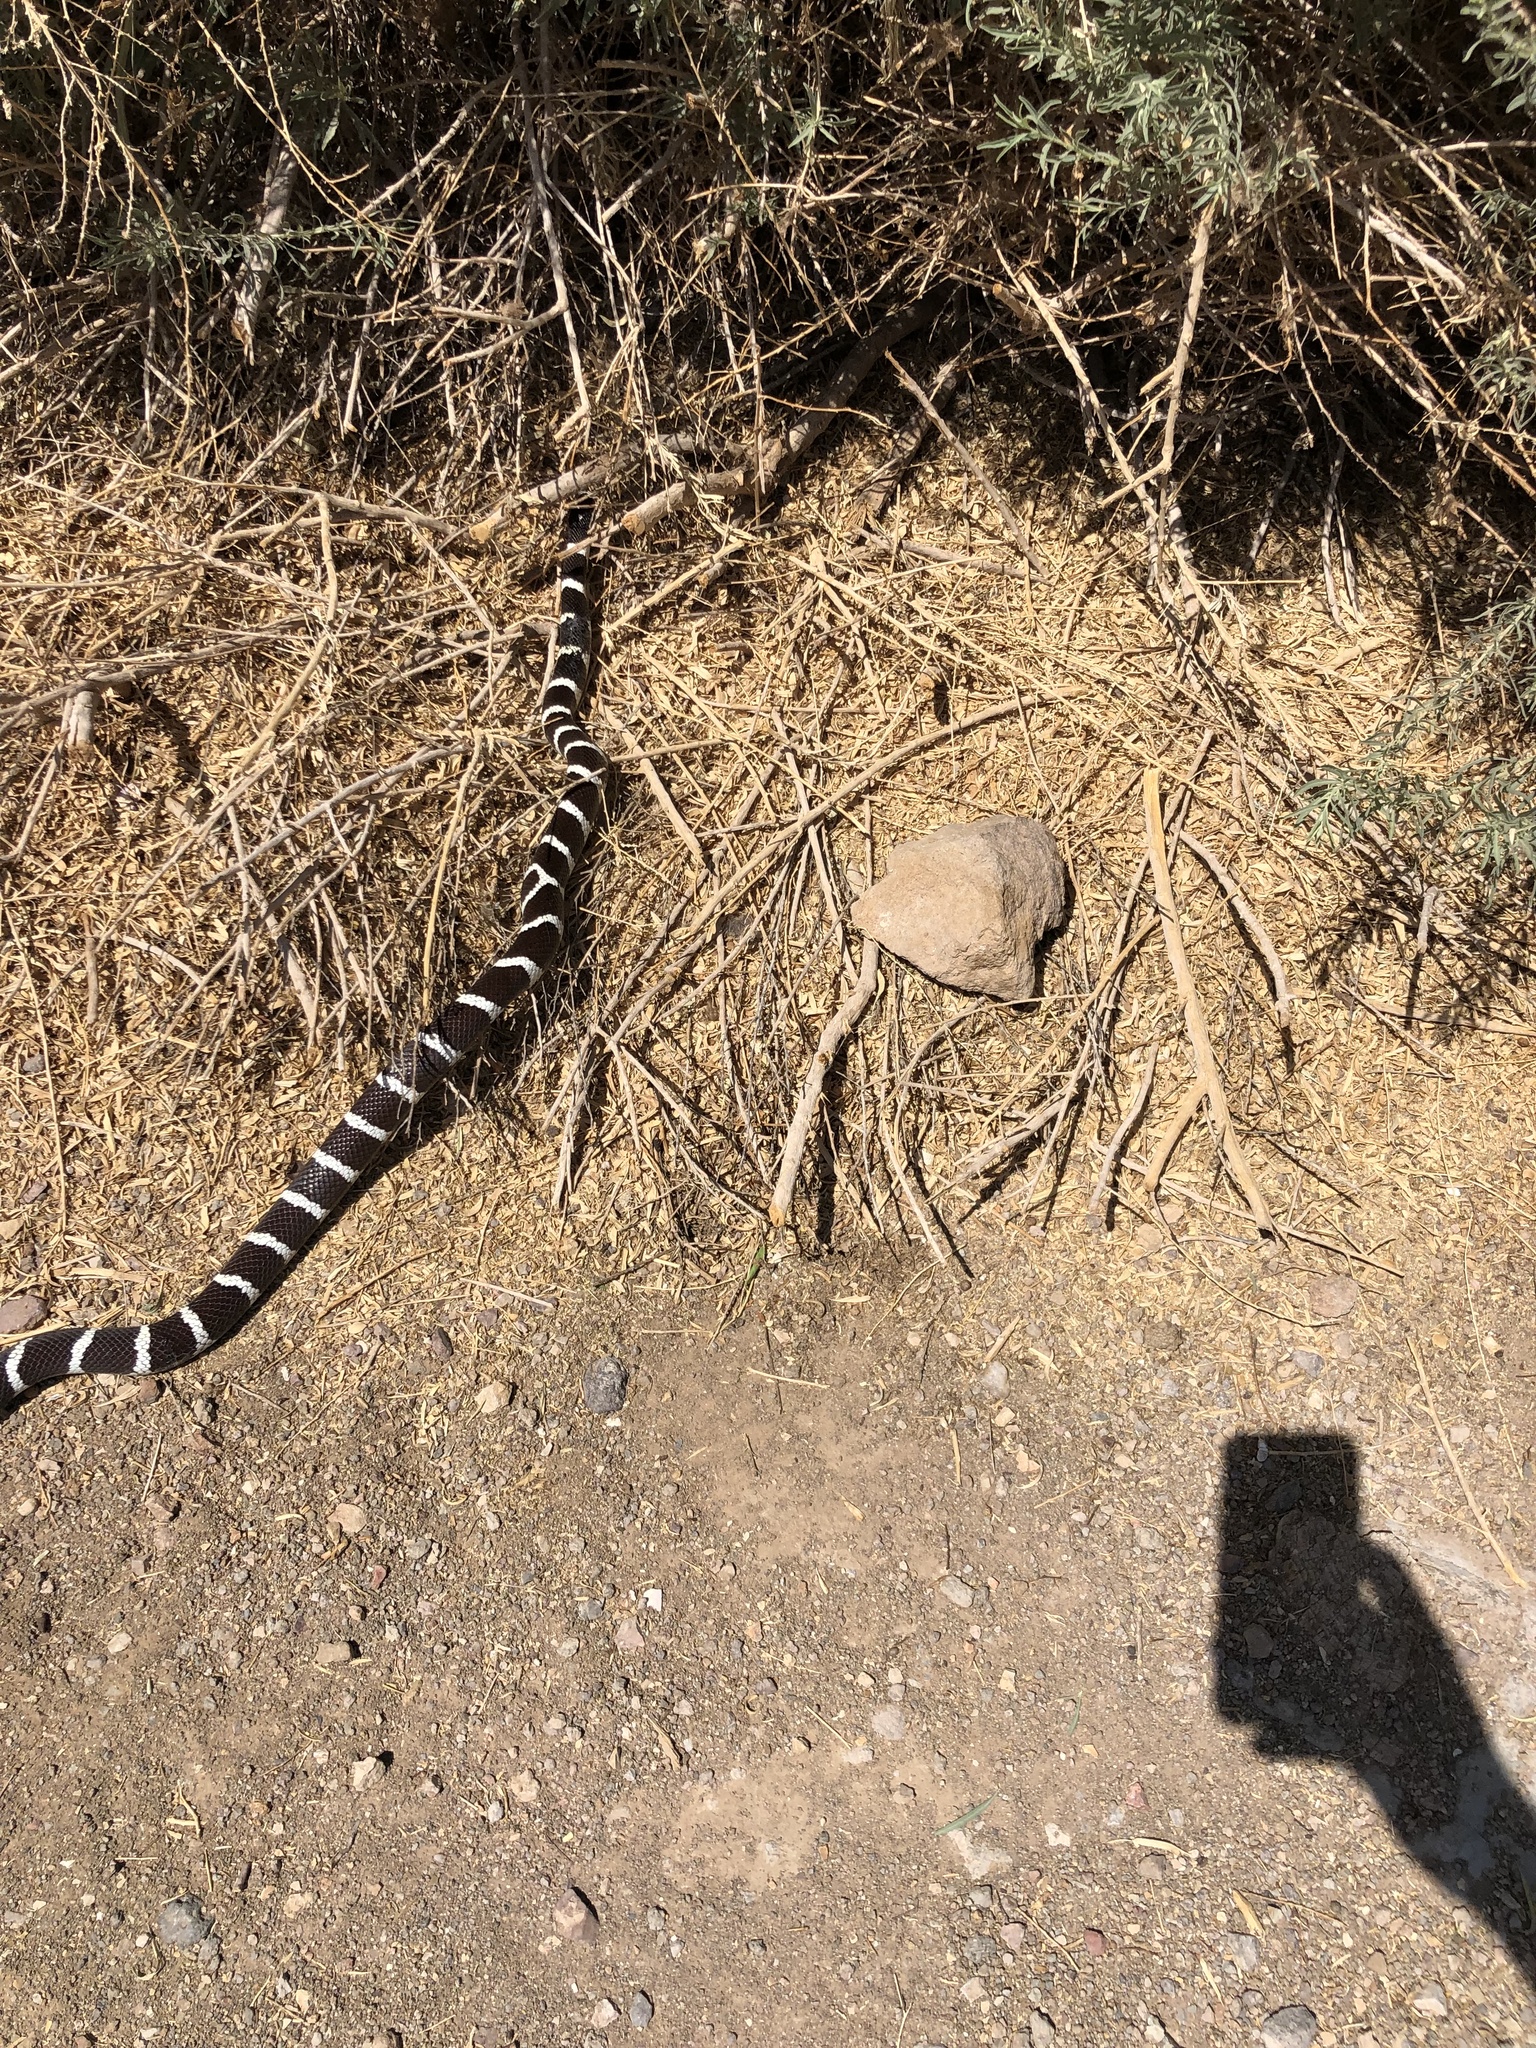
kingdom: Animalia
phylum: Chordata
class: Squamata
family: Colubridae
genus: Lampropeltis
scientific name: Lampropeltis californiae
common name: California kingsnake
